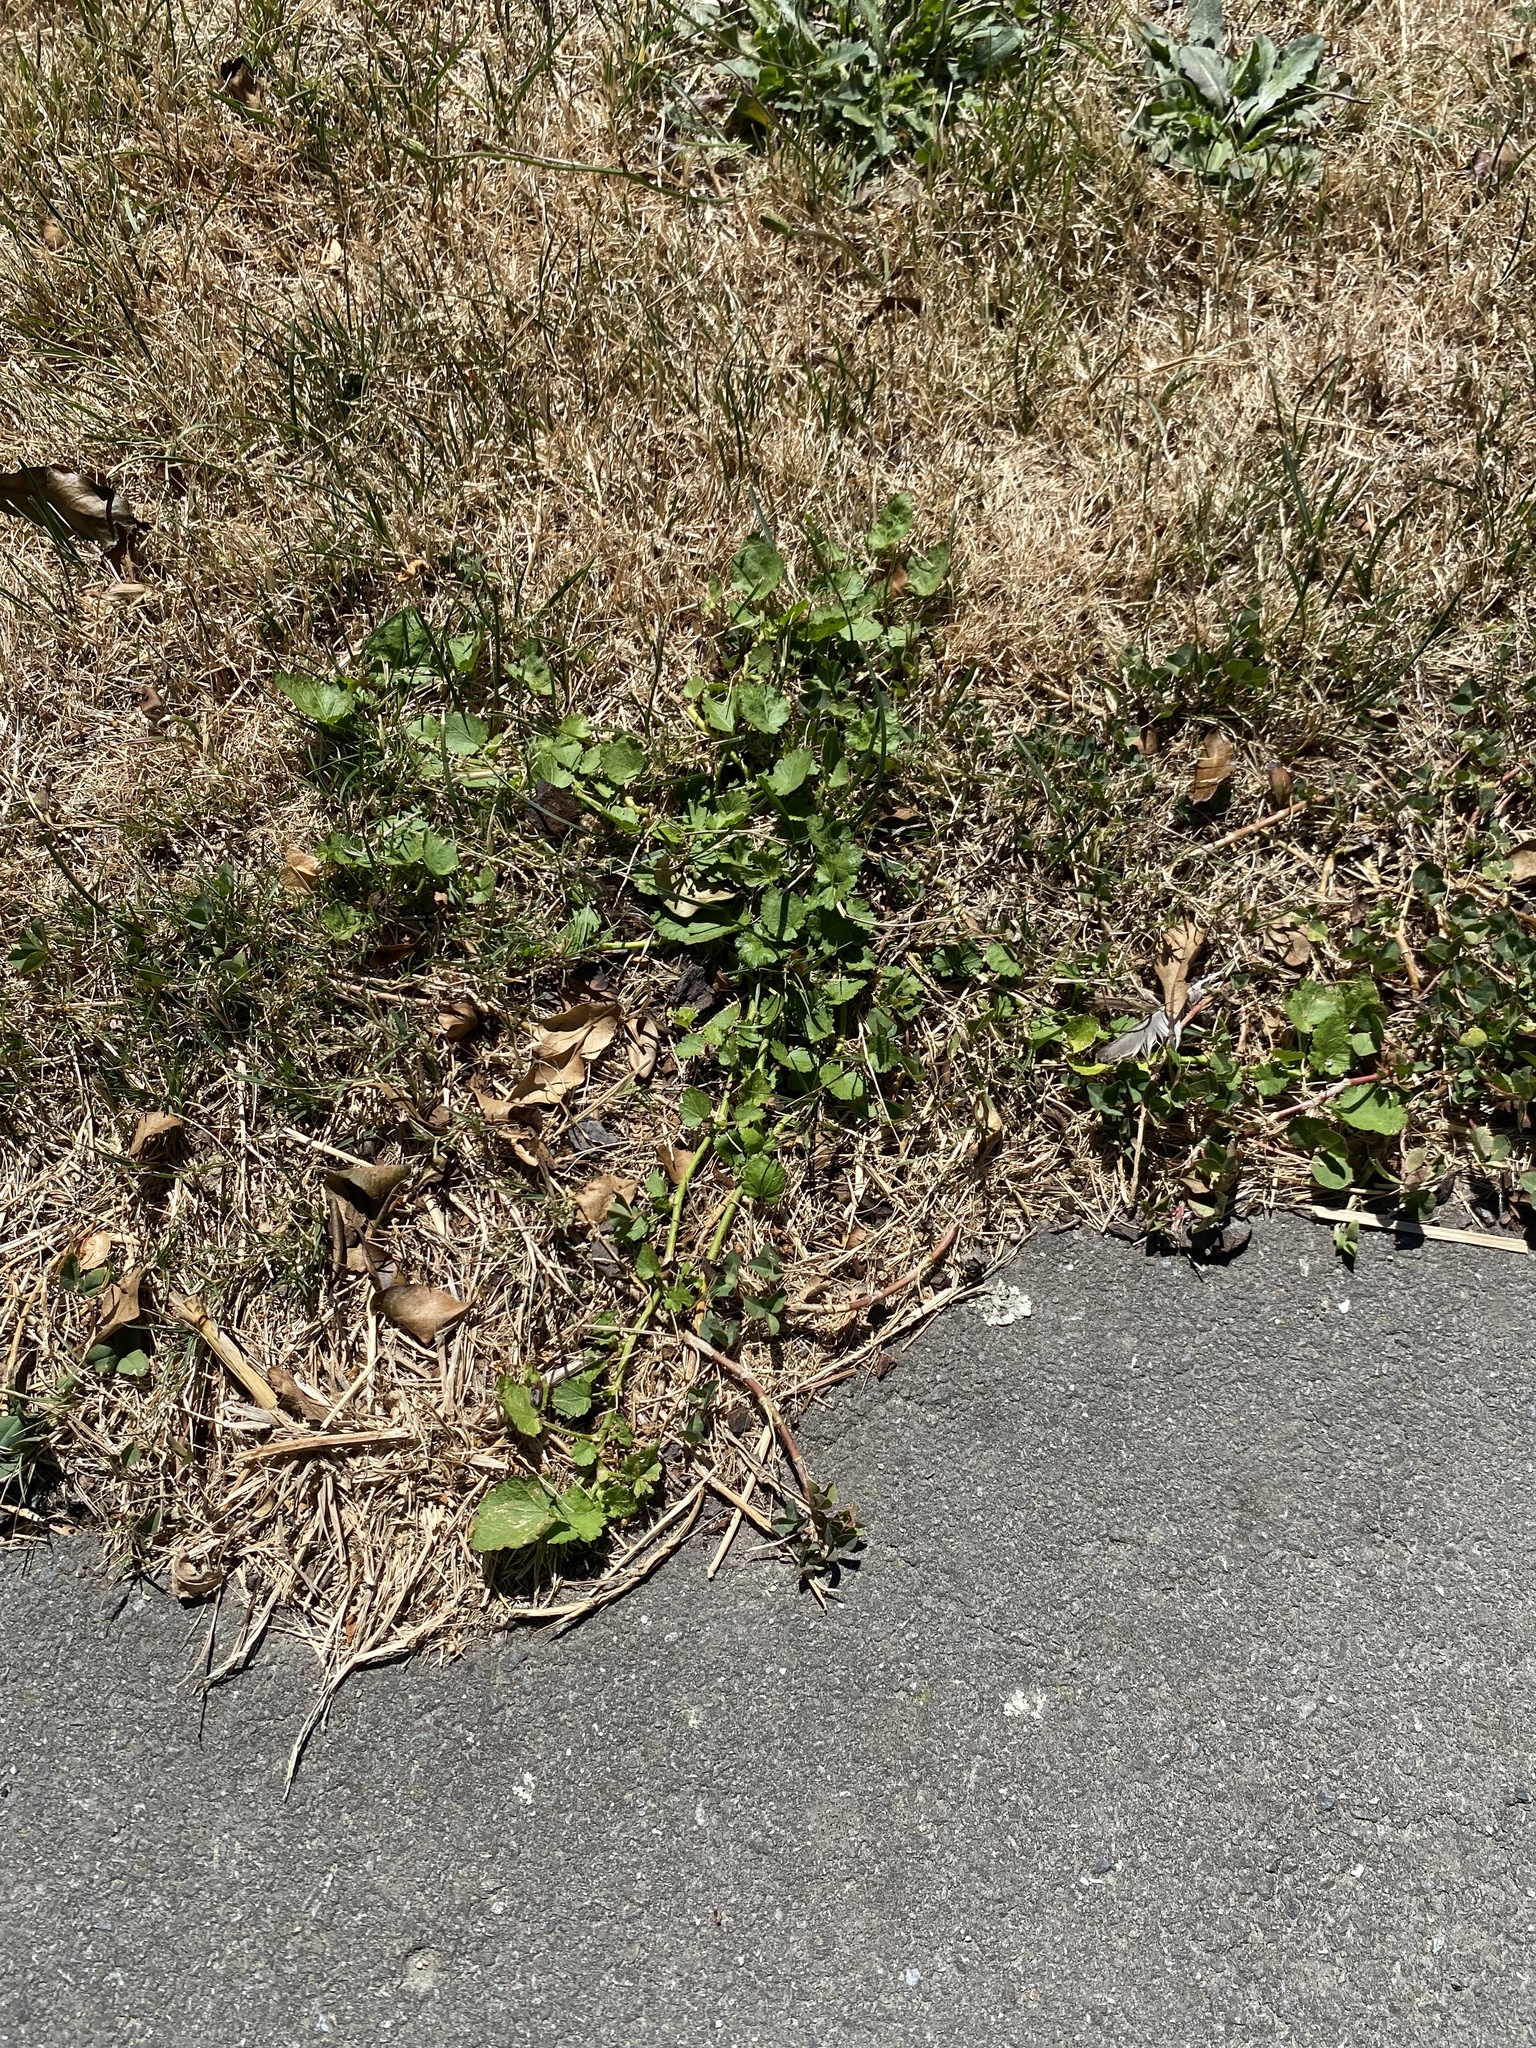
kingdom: Plantae
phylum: Tracheophyta
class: Magnoliopsida
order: Malvales
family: Malvaceae
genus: Modiola
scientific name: Modiola caroliniana
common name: Carolina bristlemallow
